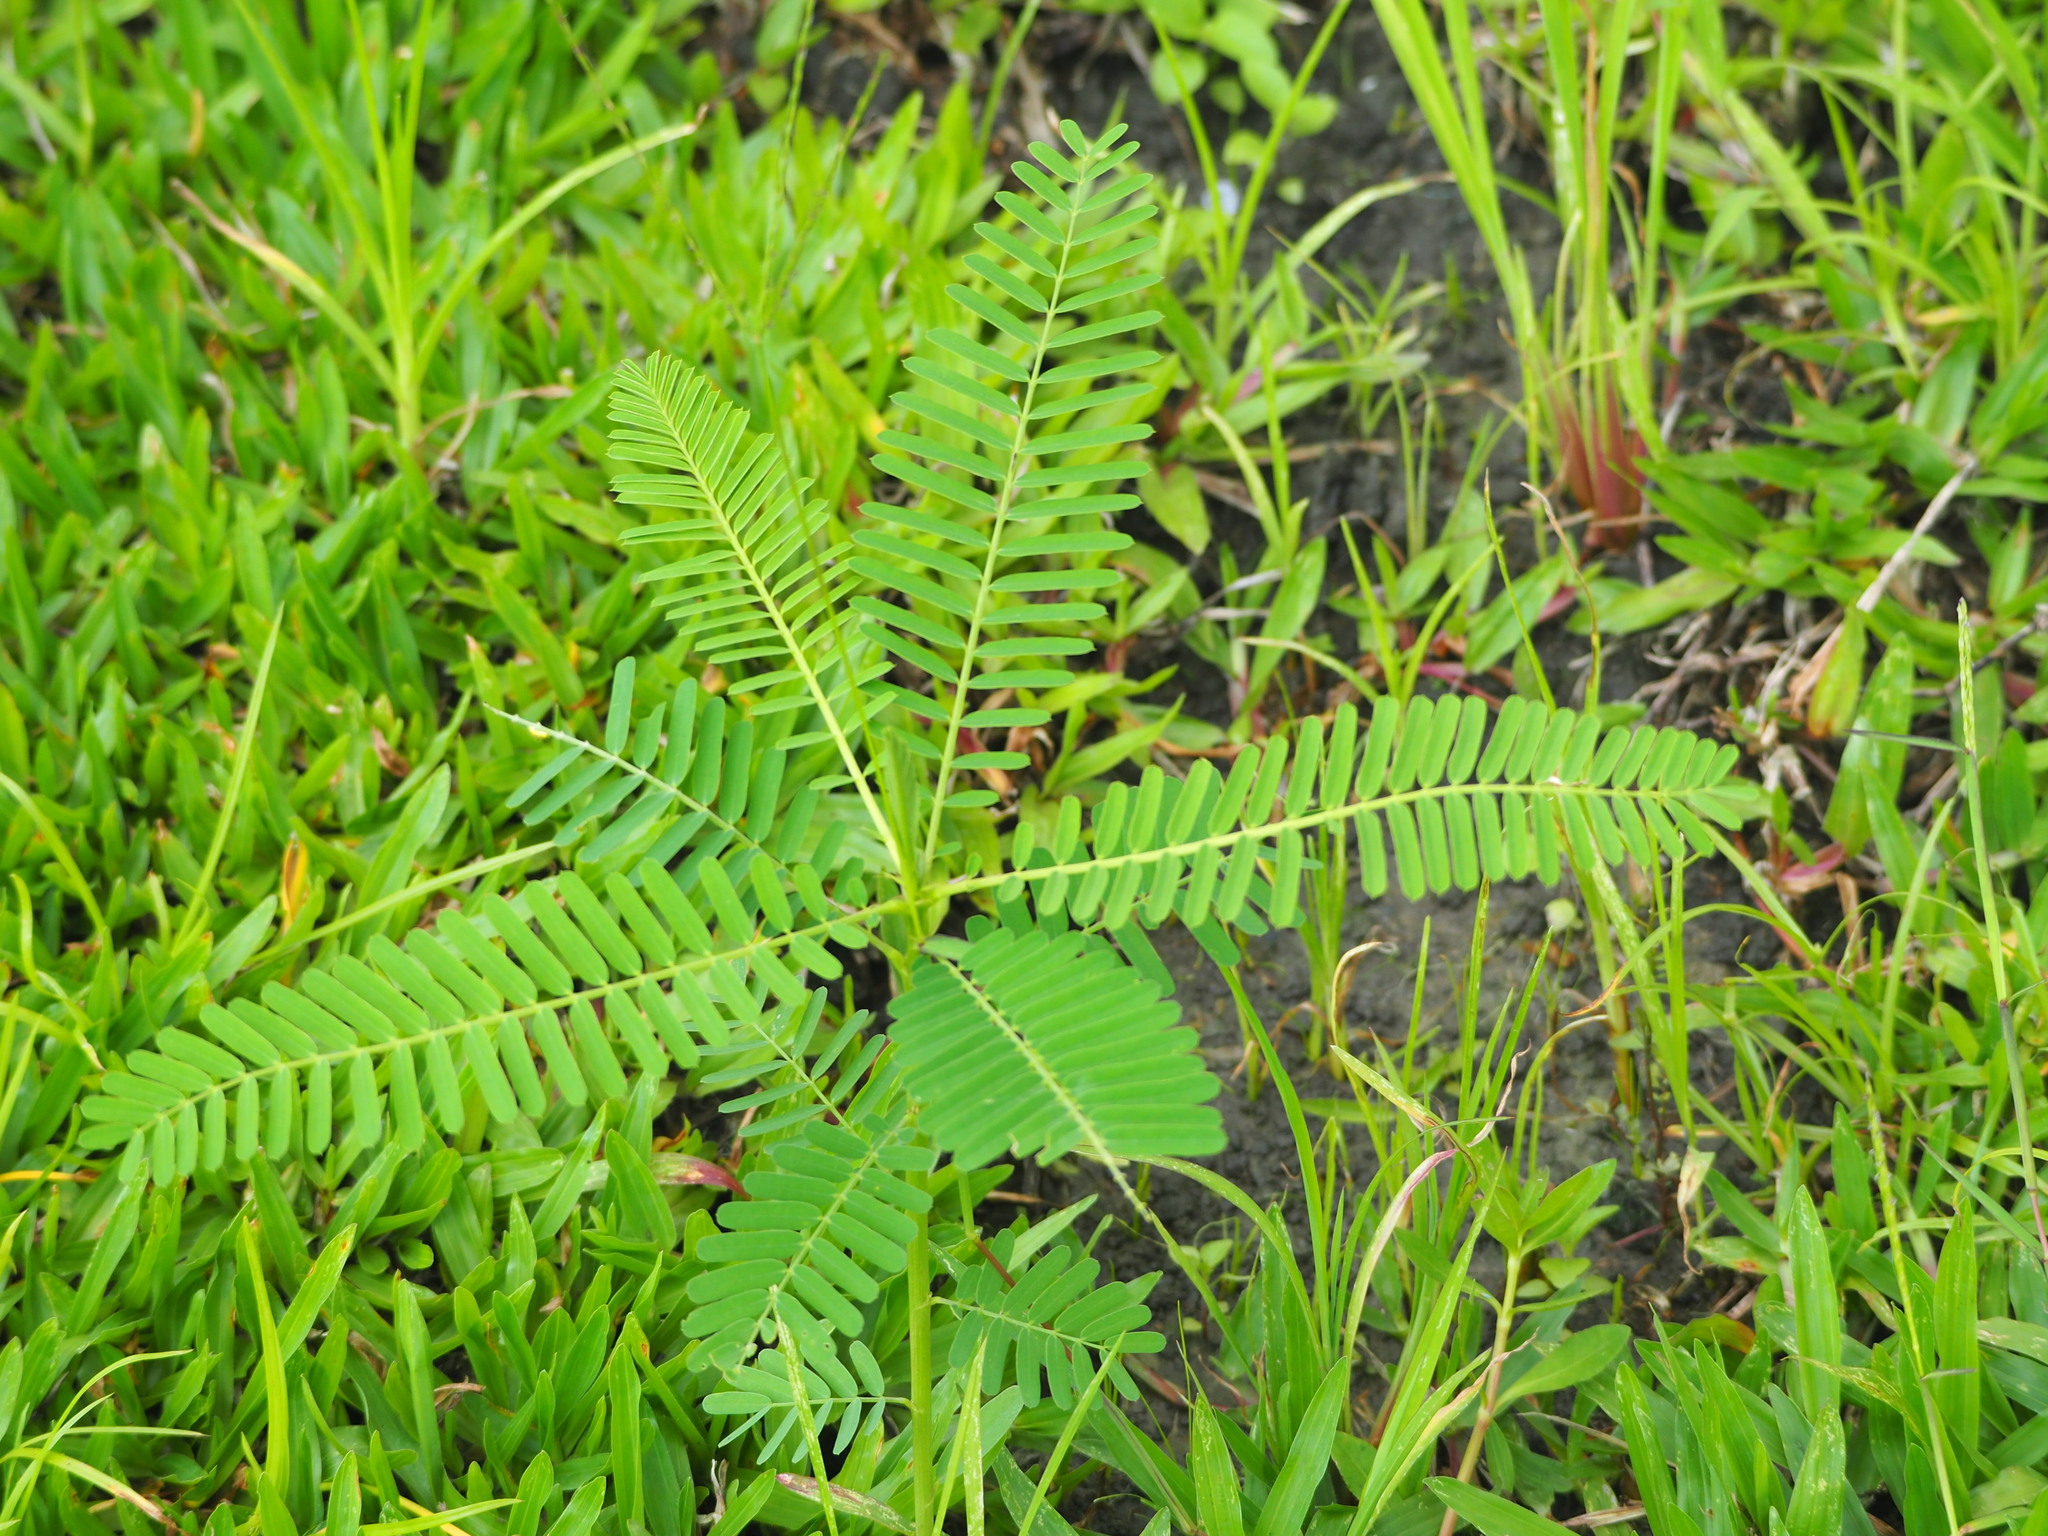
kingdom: Plantae
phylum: Tracheophyta
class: Magnoliopsida
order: Fabales
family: Fabaceae
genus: Sesbania
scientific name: Sesbania cannabina
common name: Canicha
